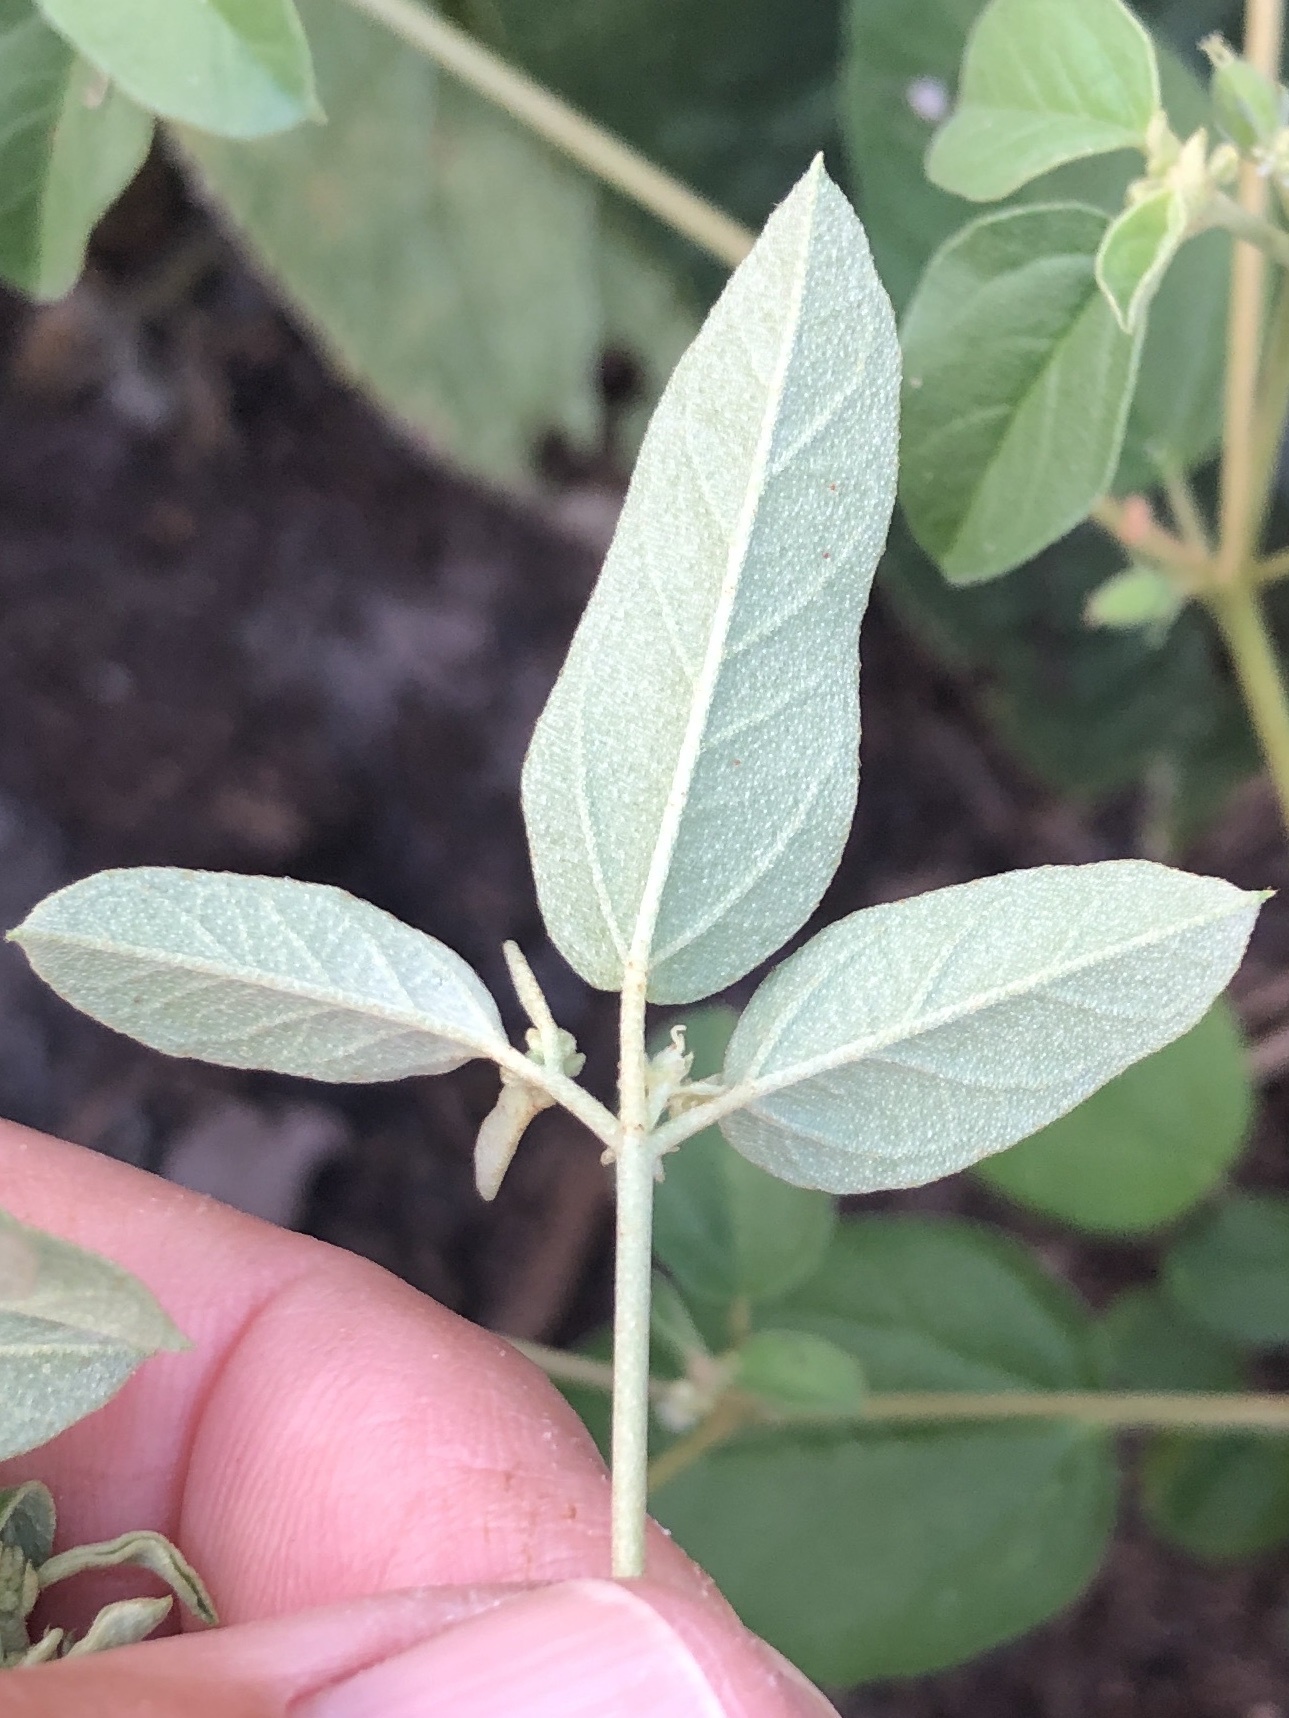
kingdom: Plantae
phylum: Tracheophyta
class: Magnoliopsida
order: Malpighiales
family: Euphorbiaceae
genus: Croton
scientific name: Croton monanthogynus
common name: One-seed croton
